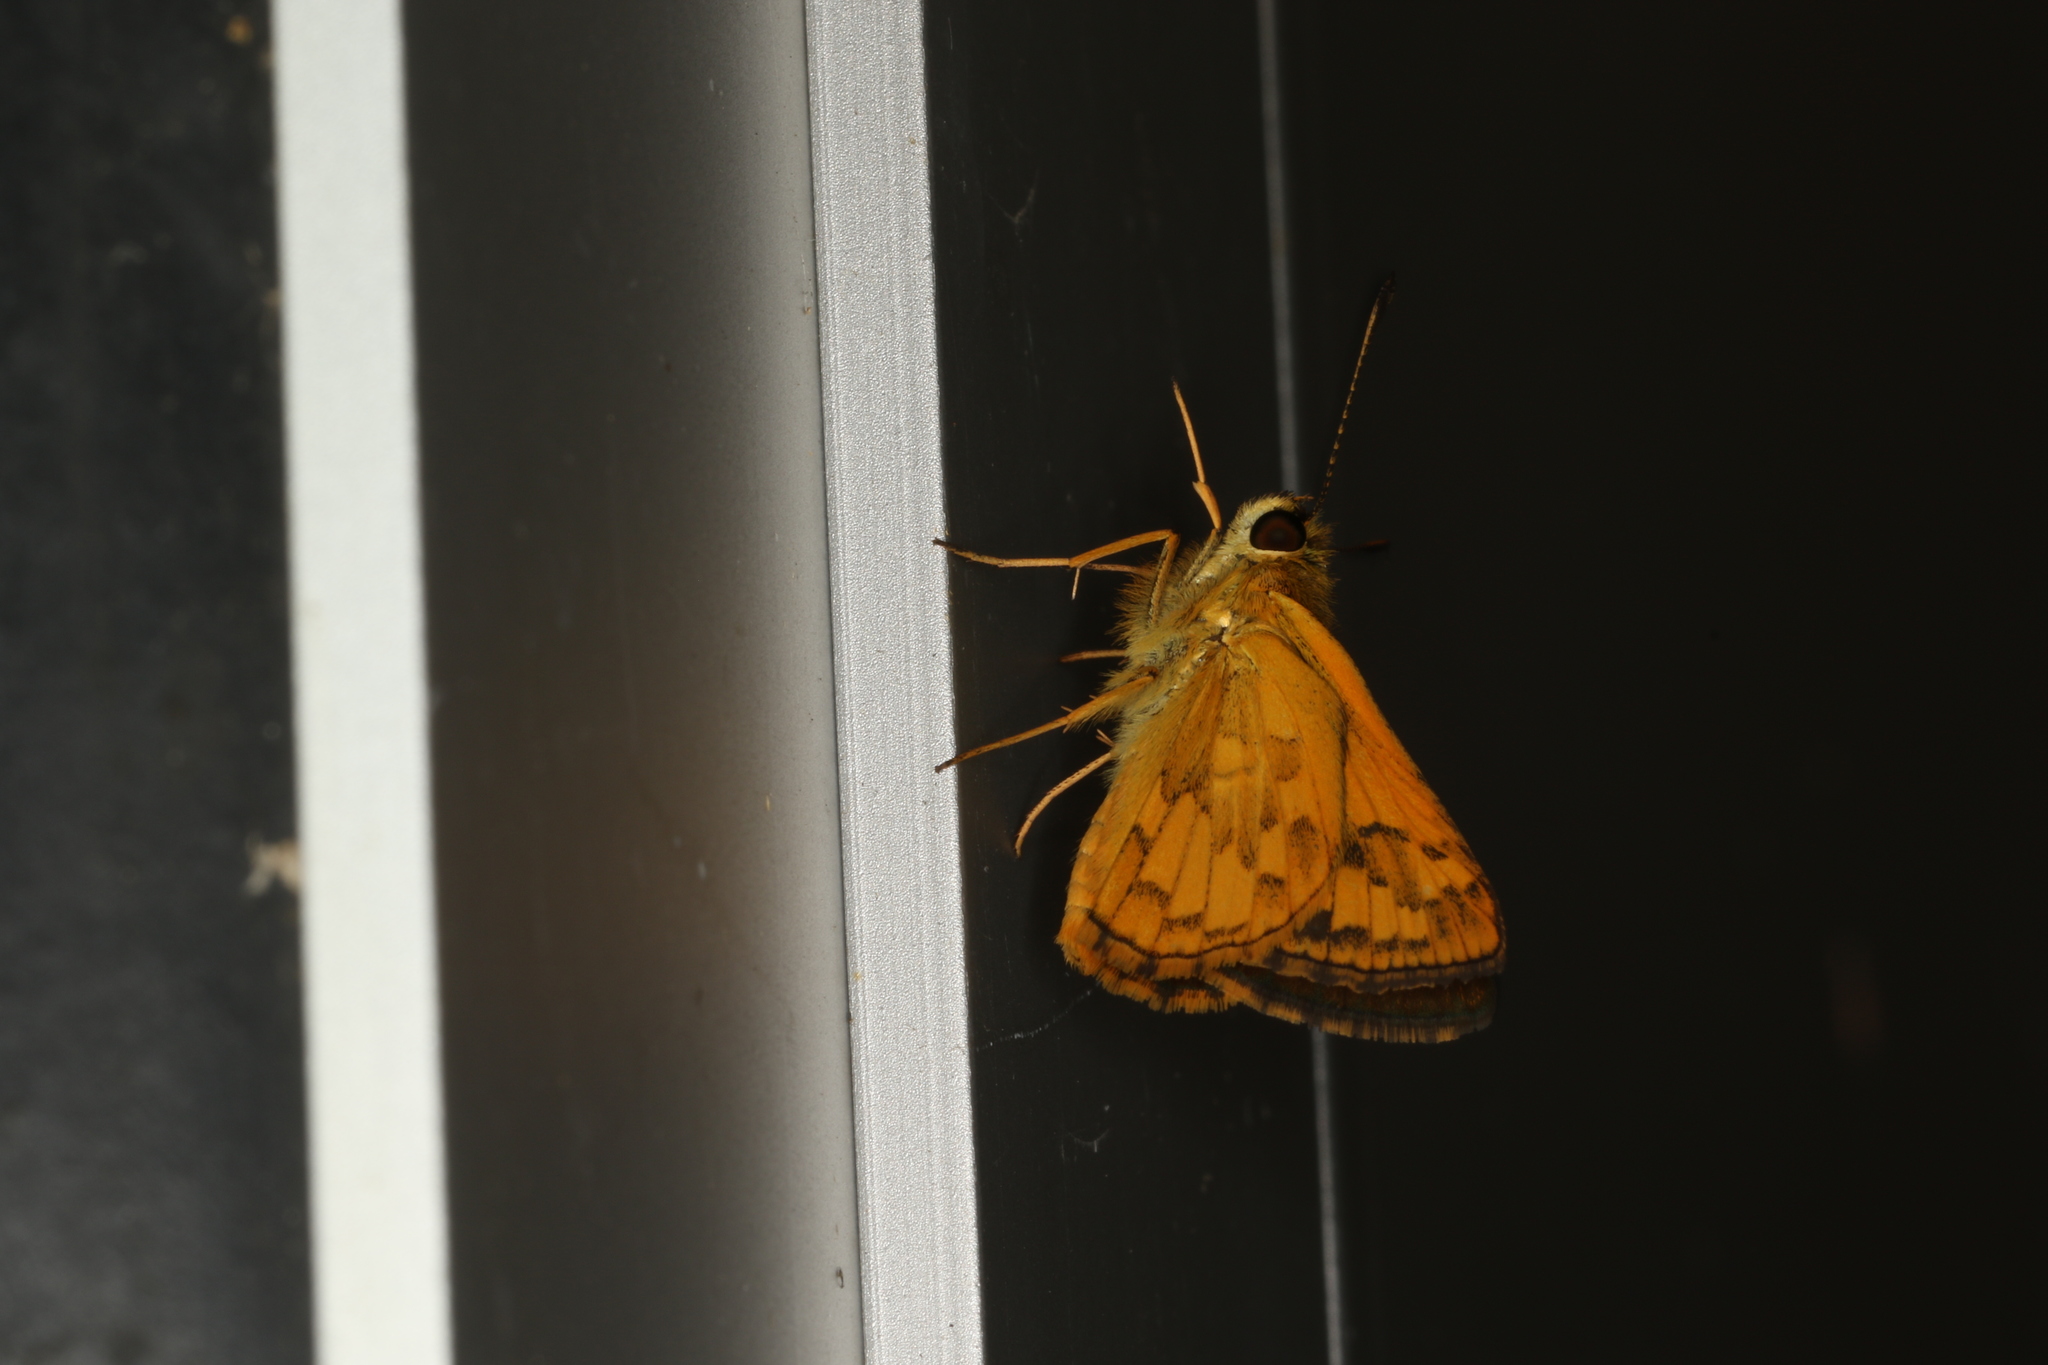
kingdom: Animalia
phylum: Arthropoda
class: Insecta
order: Lepidoptera
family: Hesperiidae
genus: Suniana
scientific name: Suniana sunias
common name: Wide-brand grass-dart
